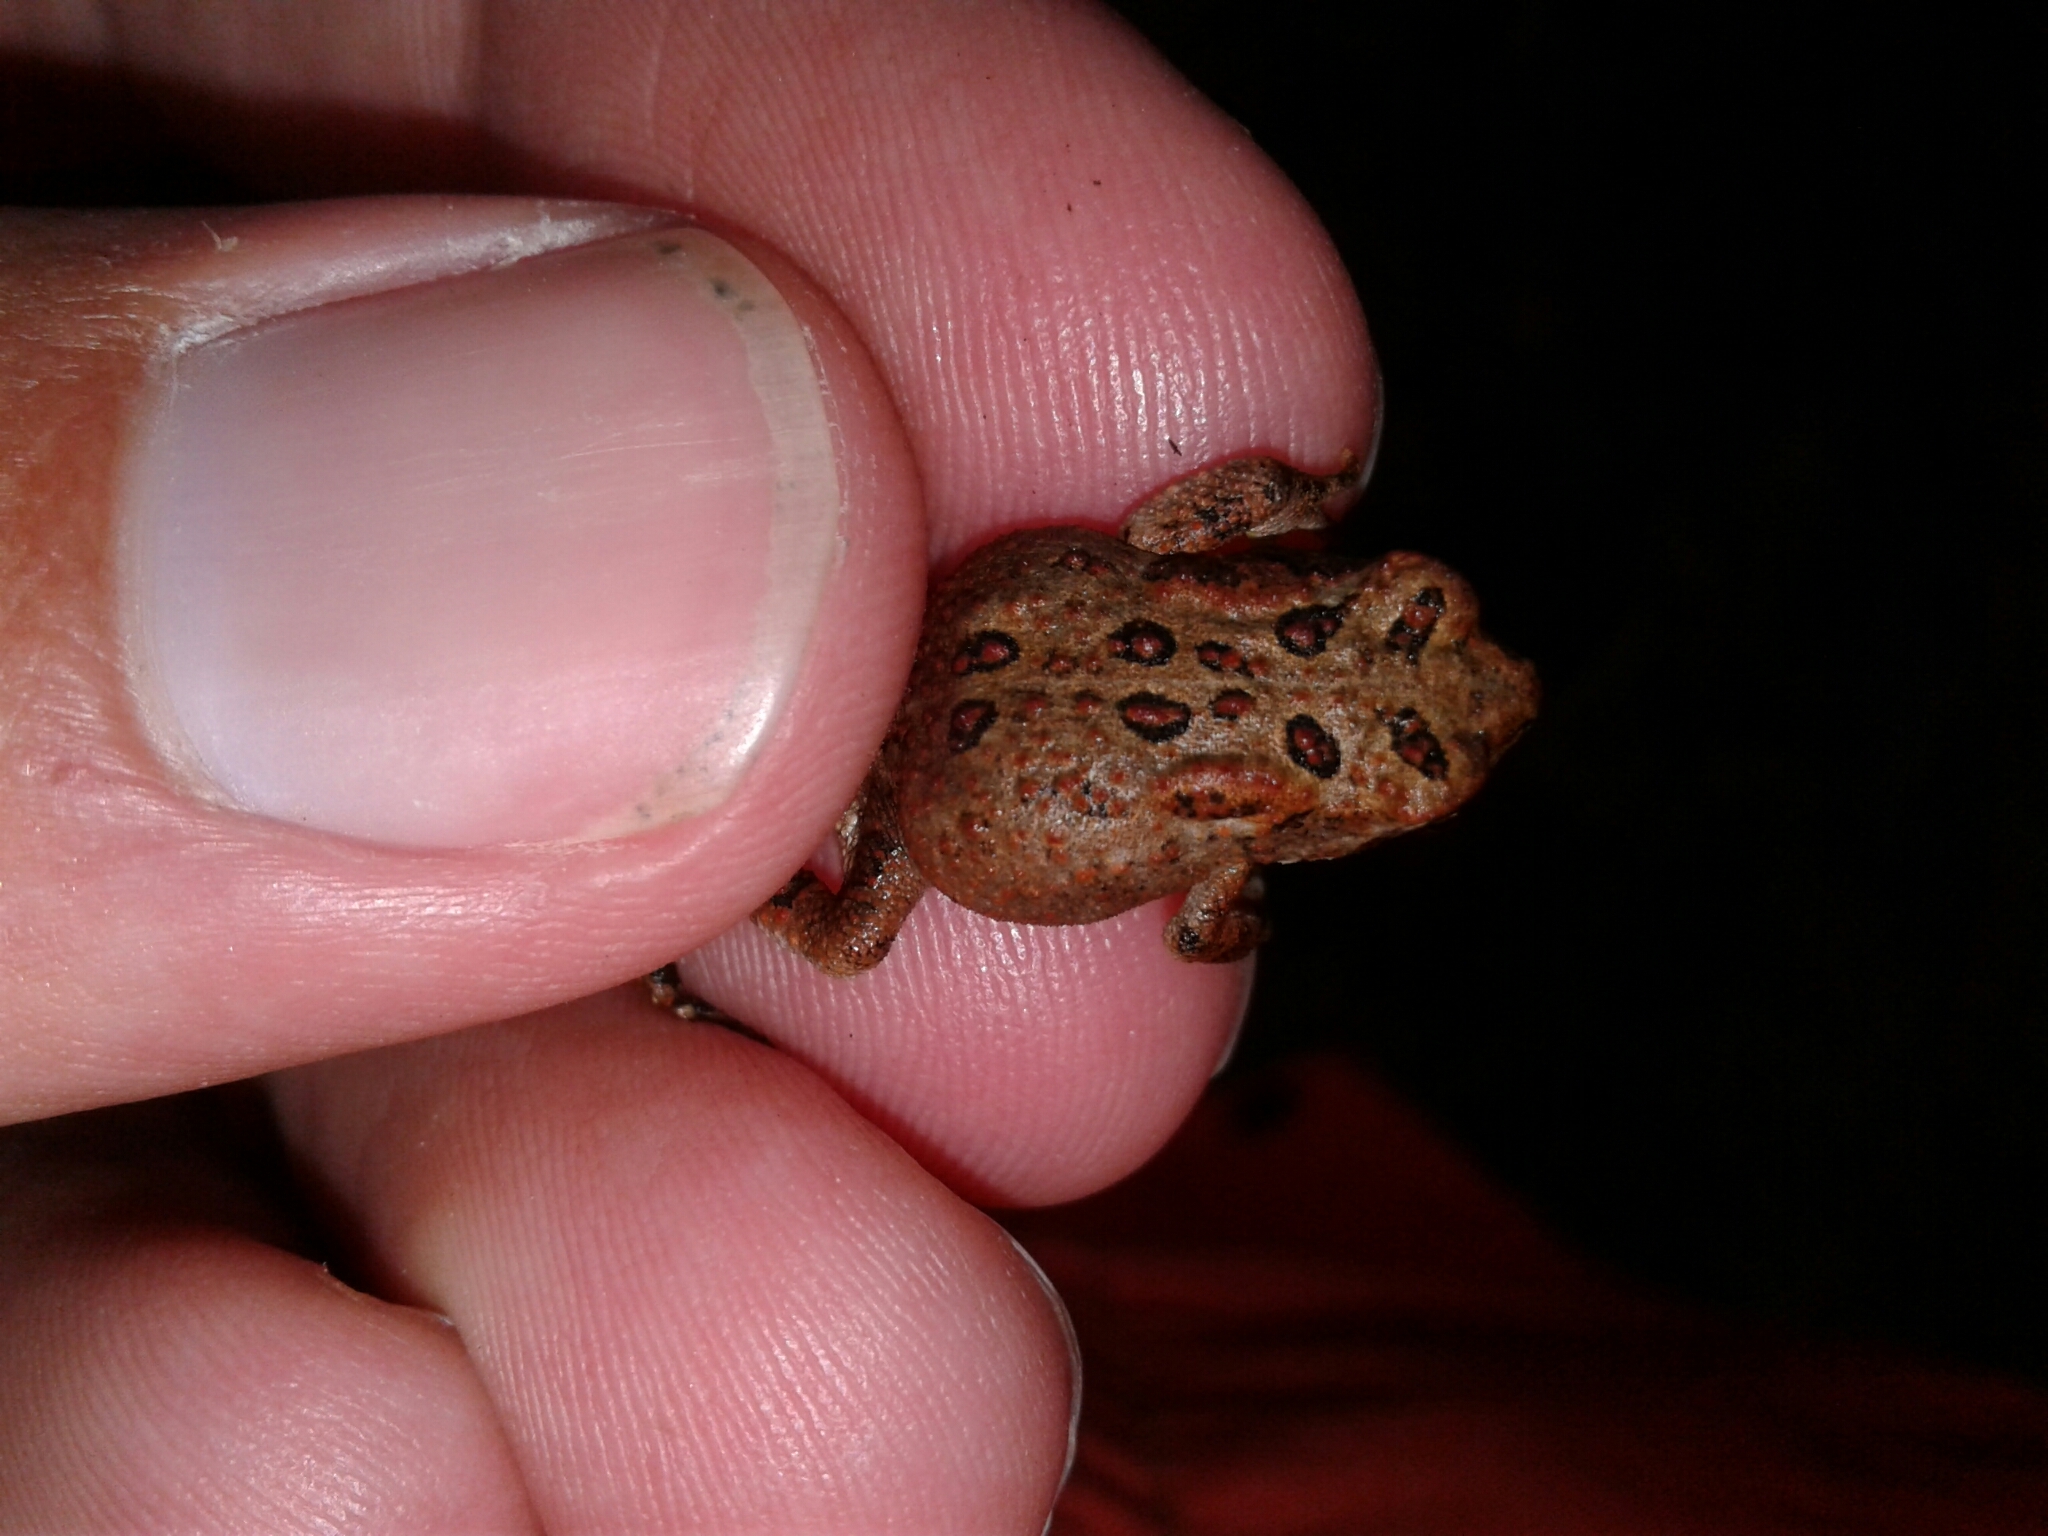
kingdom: Animalia
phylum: Chordata
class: Amphibia
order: Anura
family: Bufonidae
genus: Anaxyrus
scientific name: Anaxyrus americanus
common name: American toad
